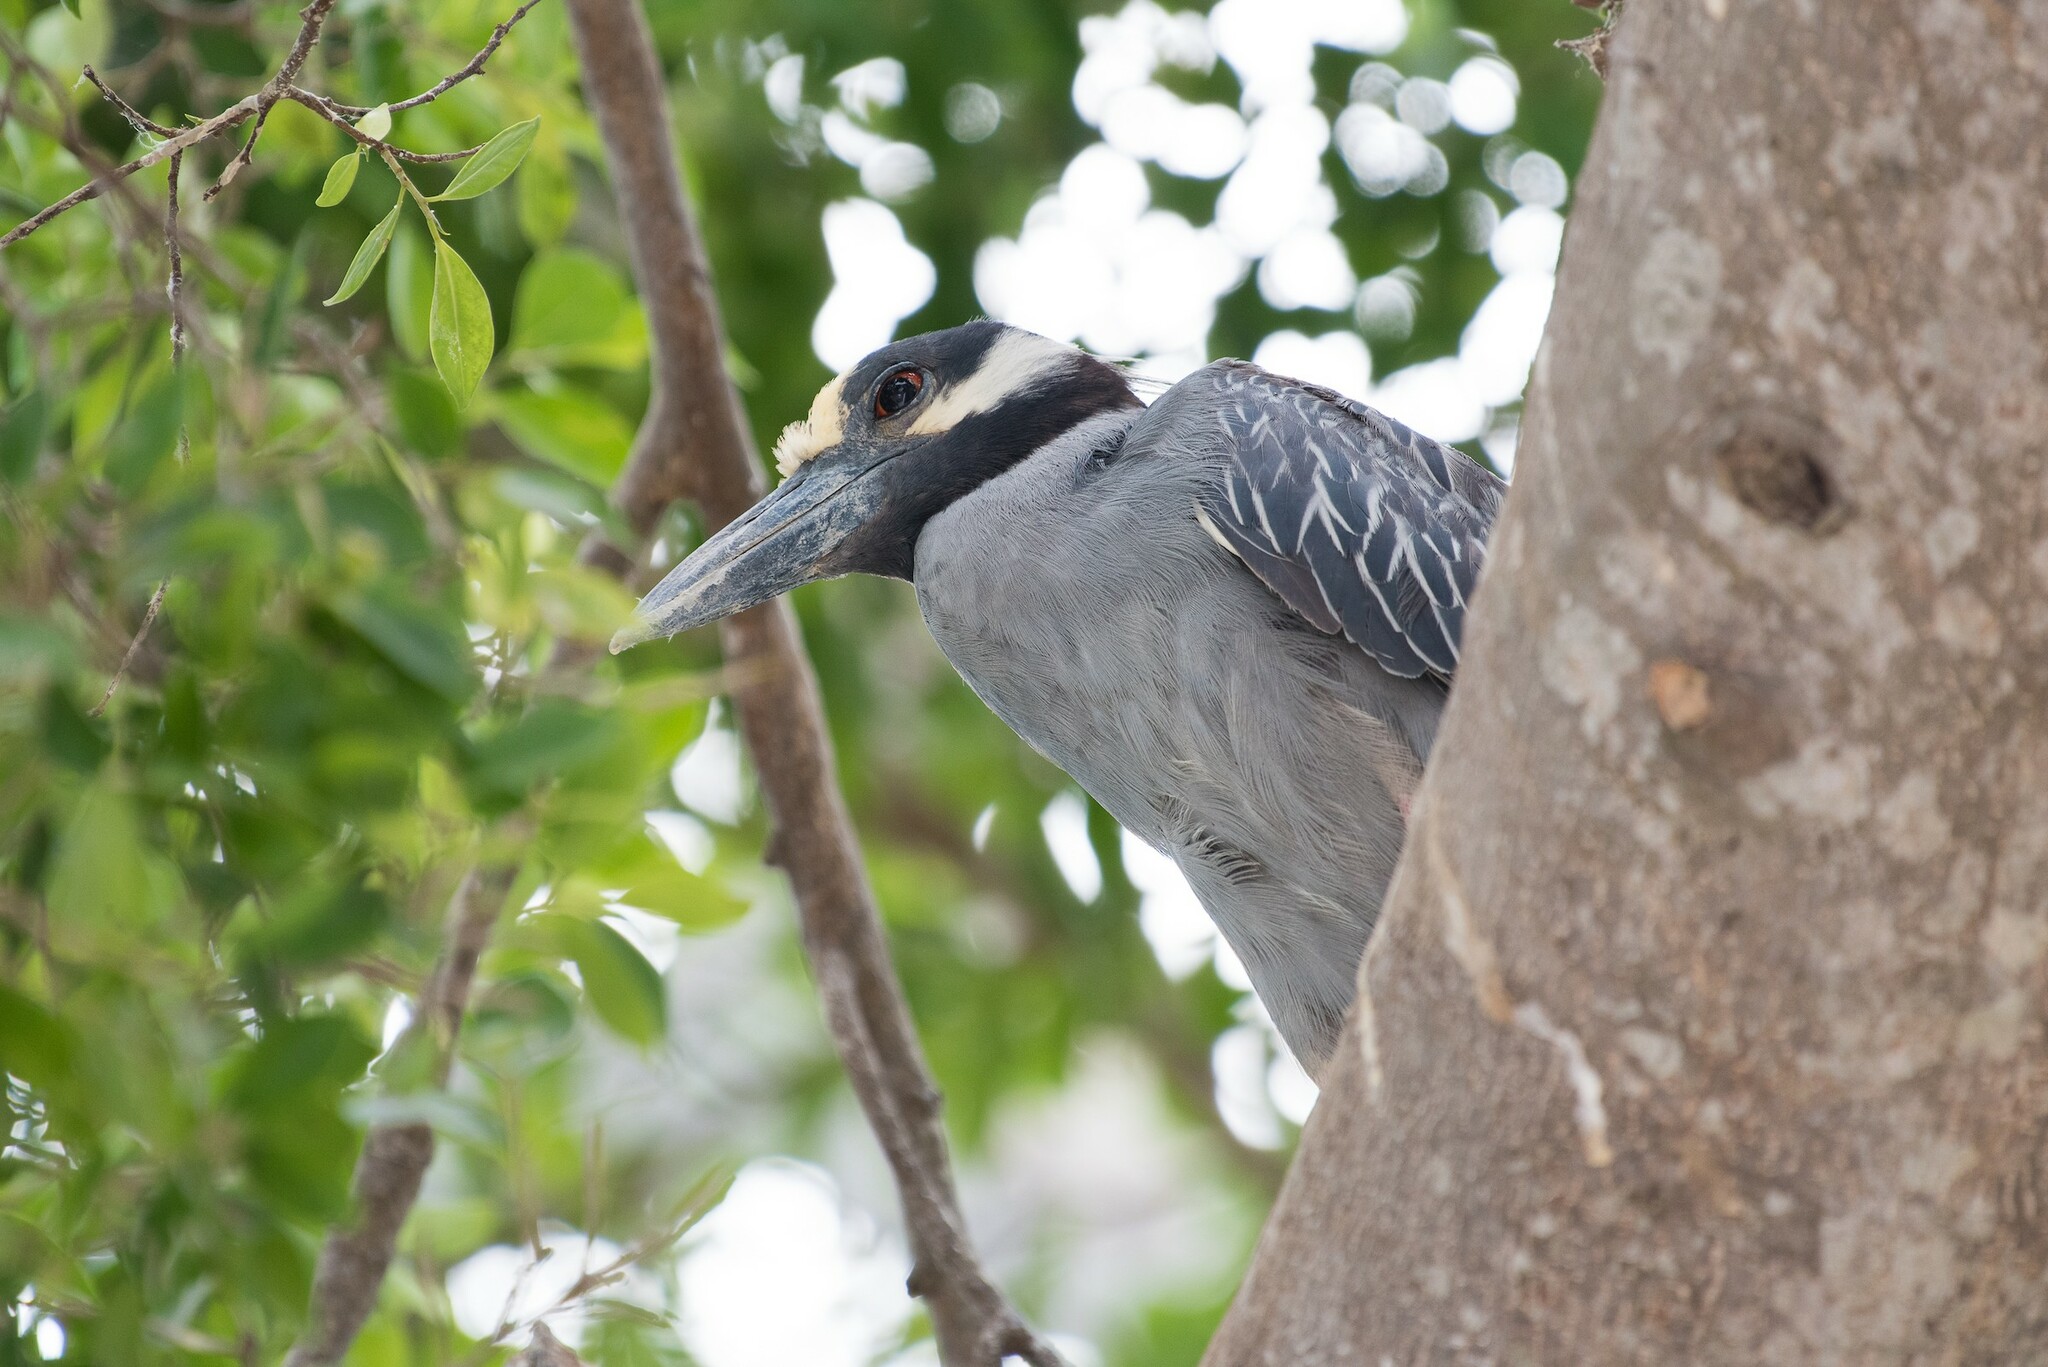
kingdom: Animalia
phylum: Chordata
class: Aves
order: Pelecaniformes
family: Ardeidae
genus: Nyctanassa
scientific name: Nyctanassa violacea
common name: Yellow-crowned night heron
